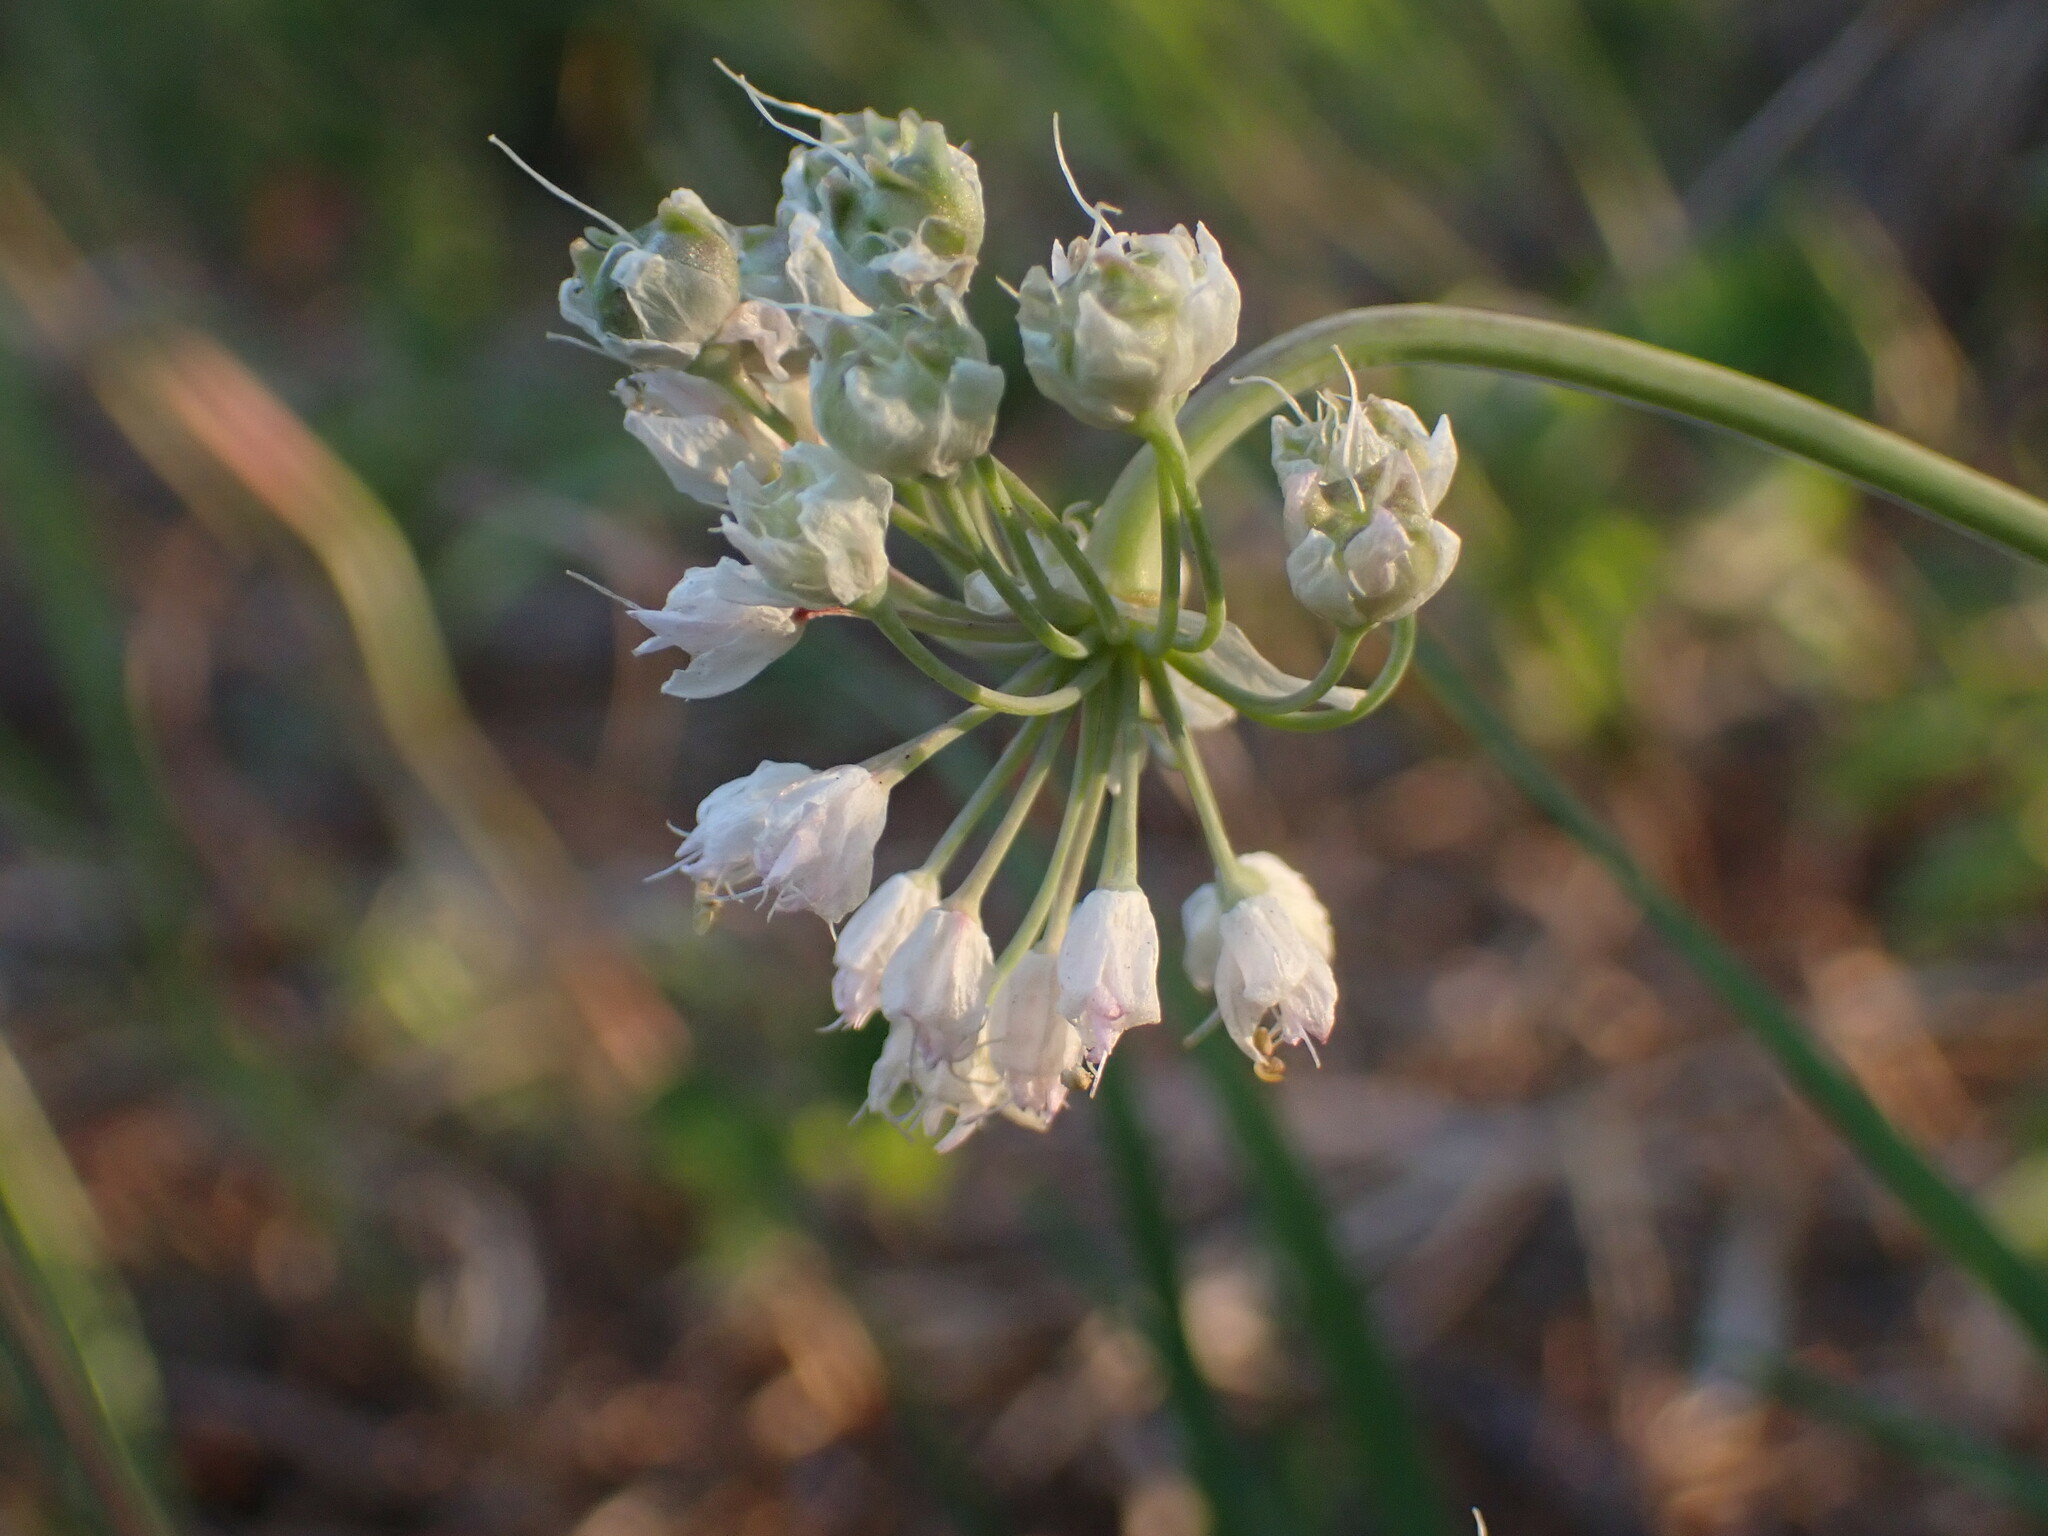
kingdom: Plantae
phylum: Tracheophyta
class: Liliopsida
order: Asparagales
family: Amaryllidaceae
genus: Allium
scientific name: Allium cernuum
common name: Nodding onion
